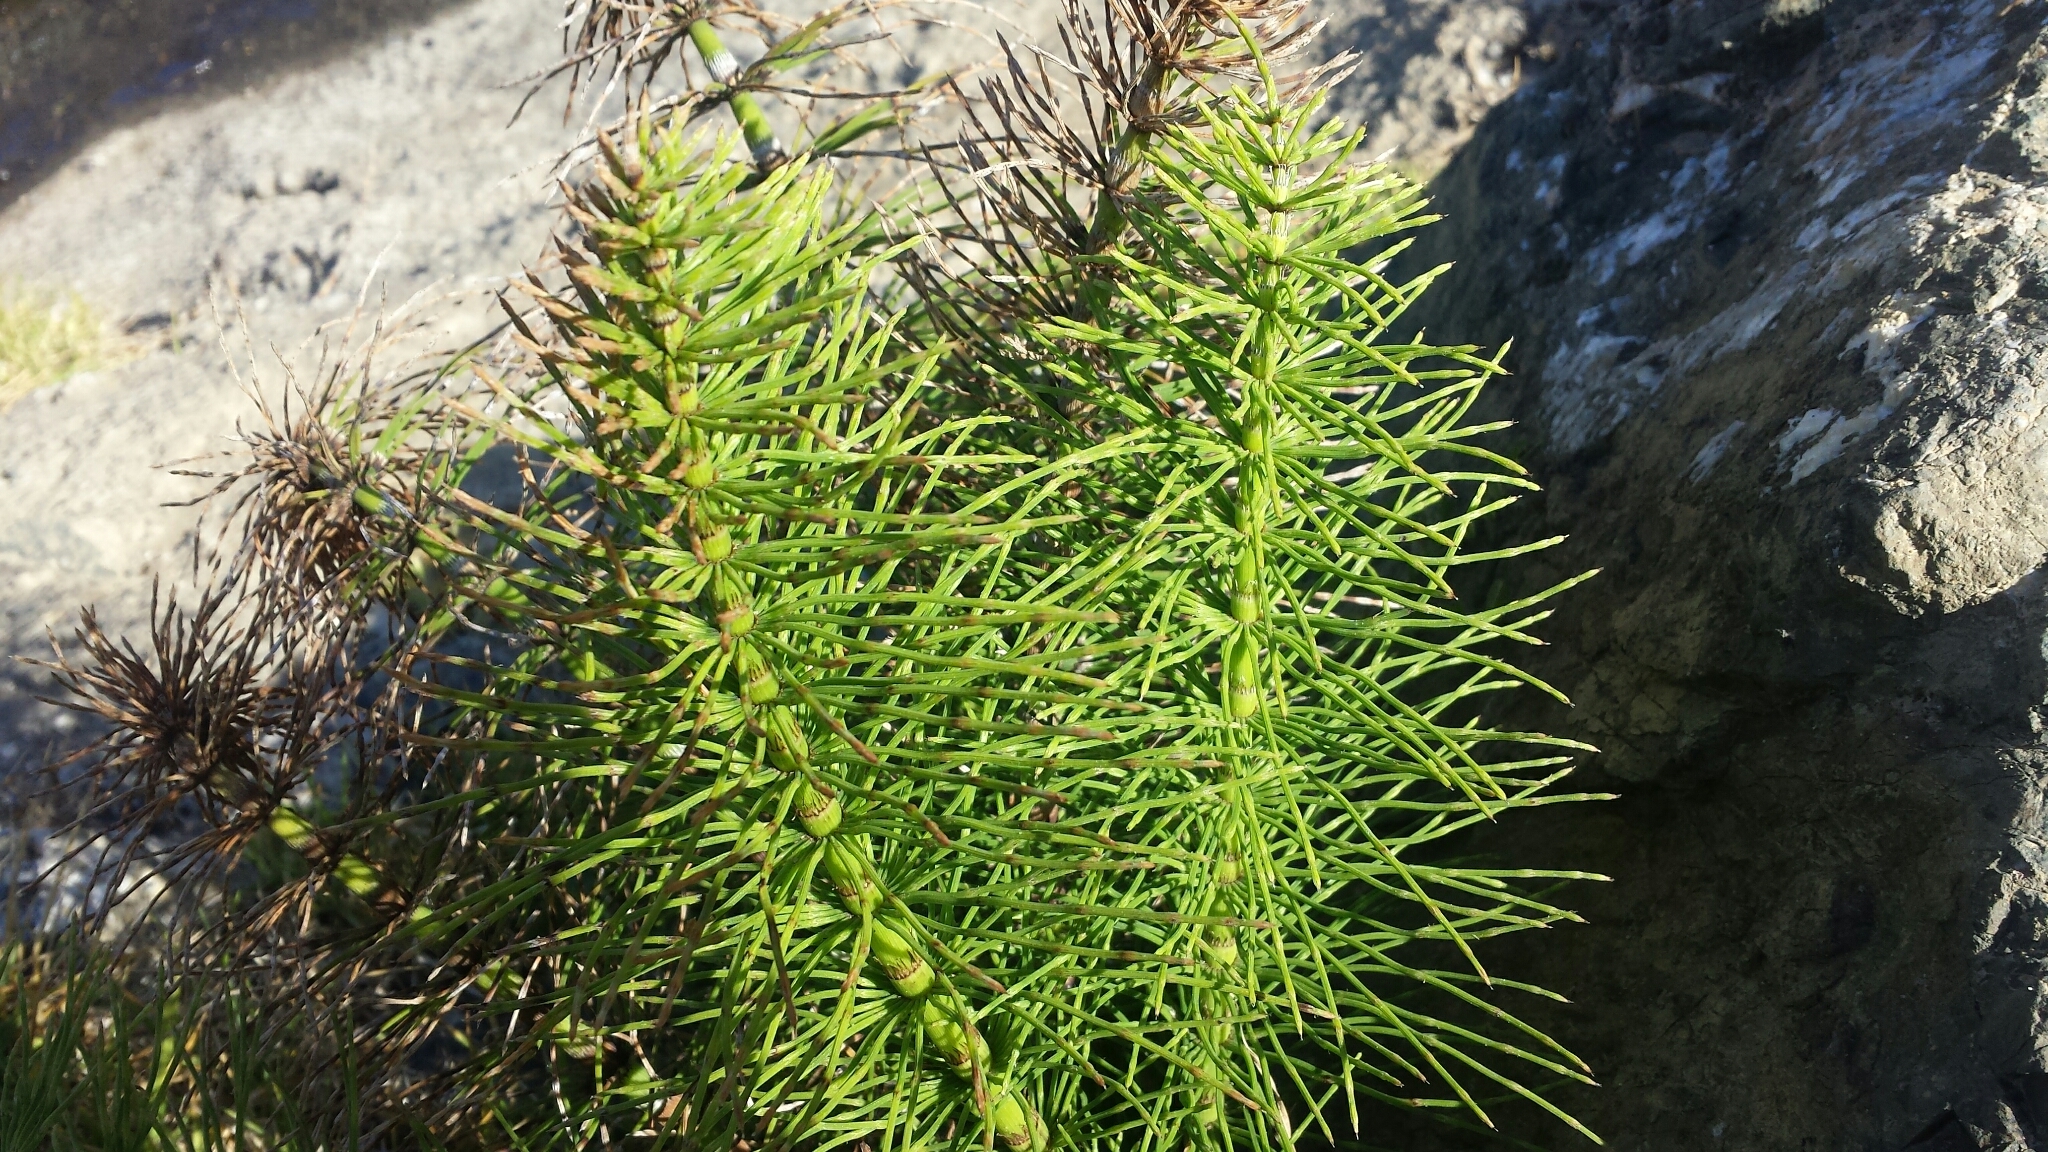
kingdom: Plantae
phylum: Tracheophyta
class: Polypodiopsida
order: Equisetales
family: Equisetaceae
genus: Equisetum
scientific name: Equisetum telmateia
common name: Great horsetail
